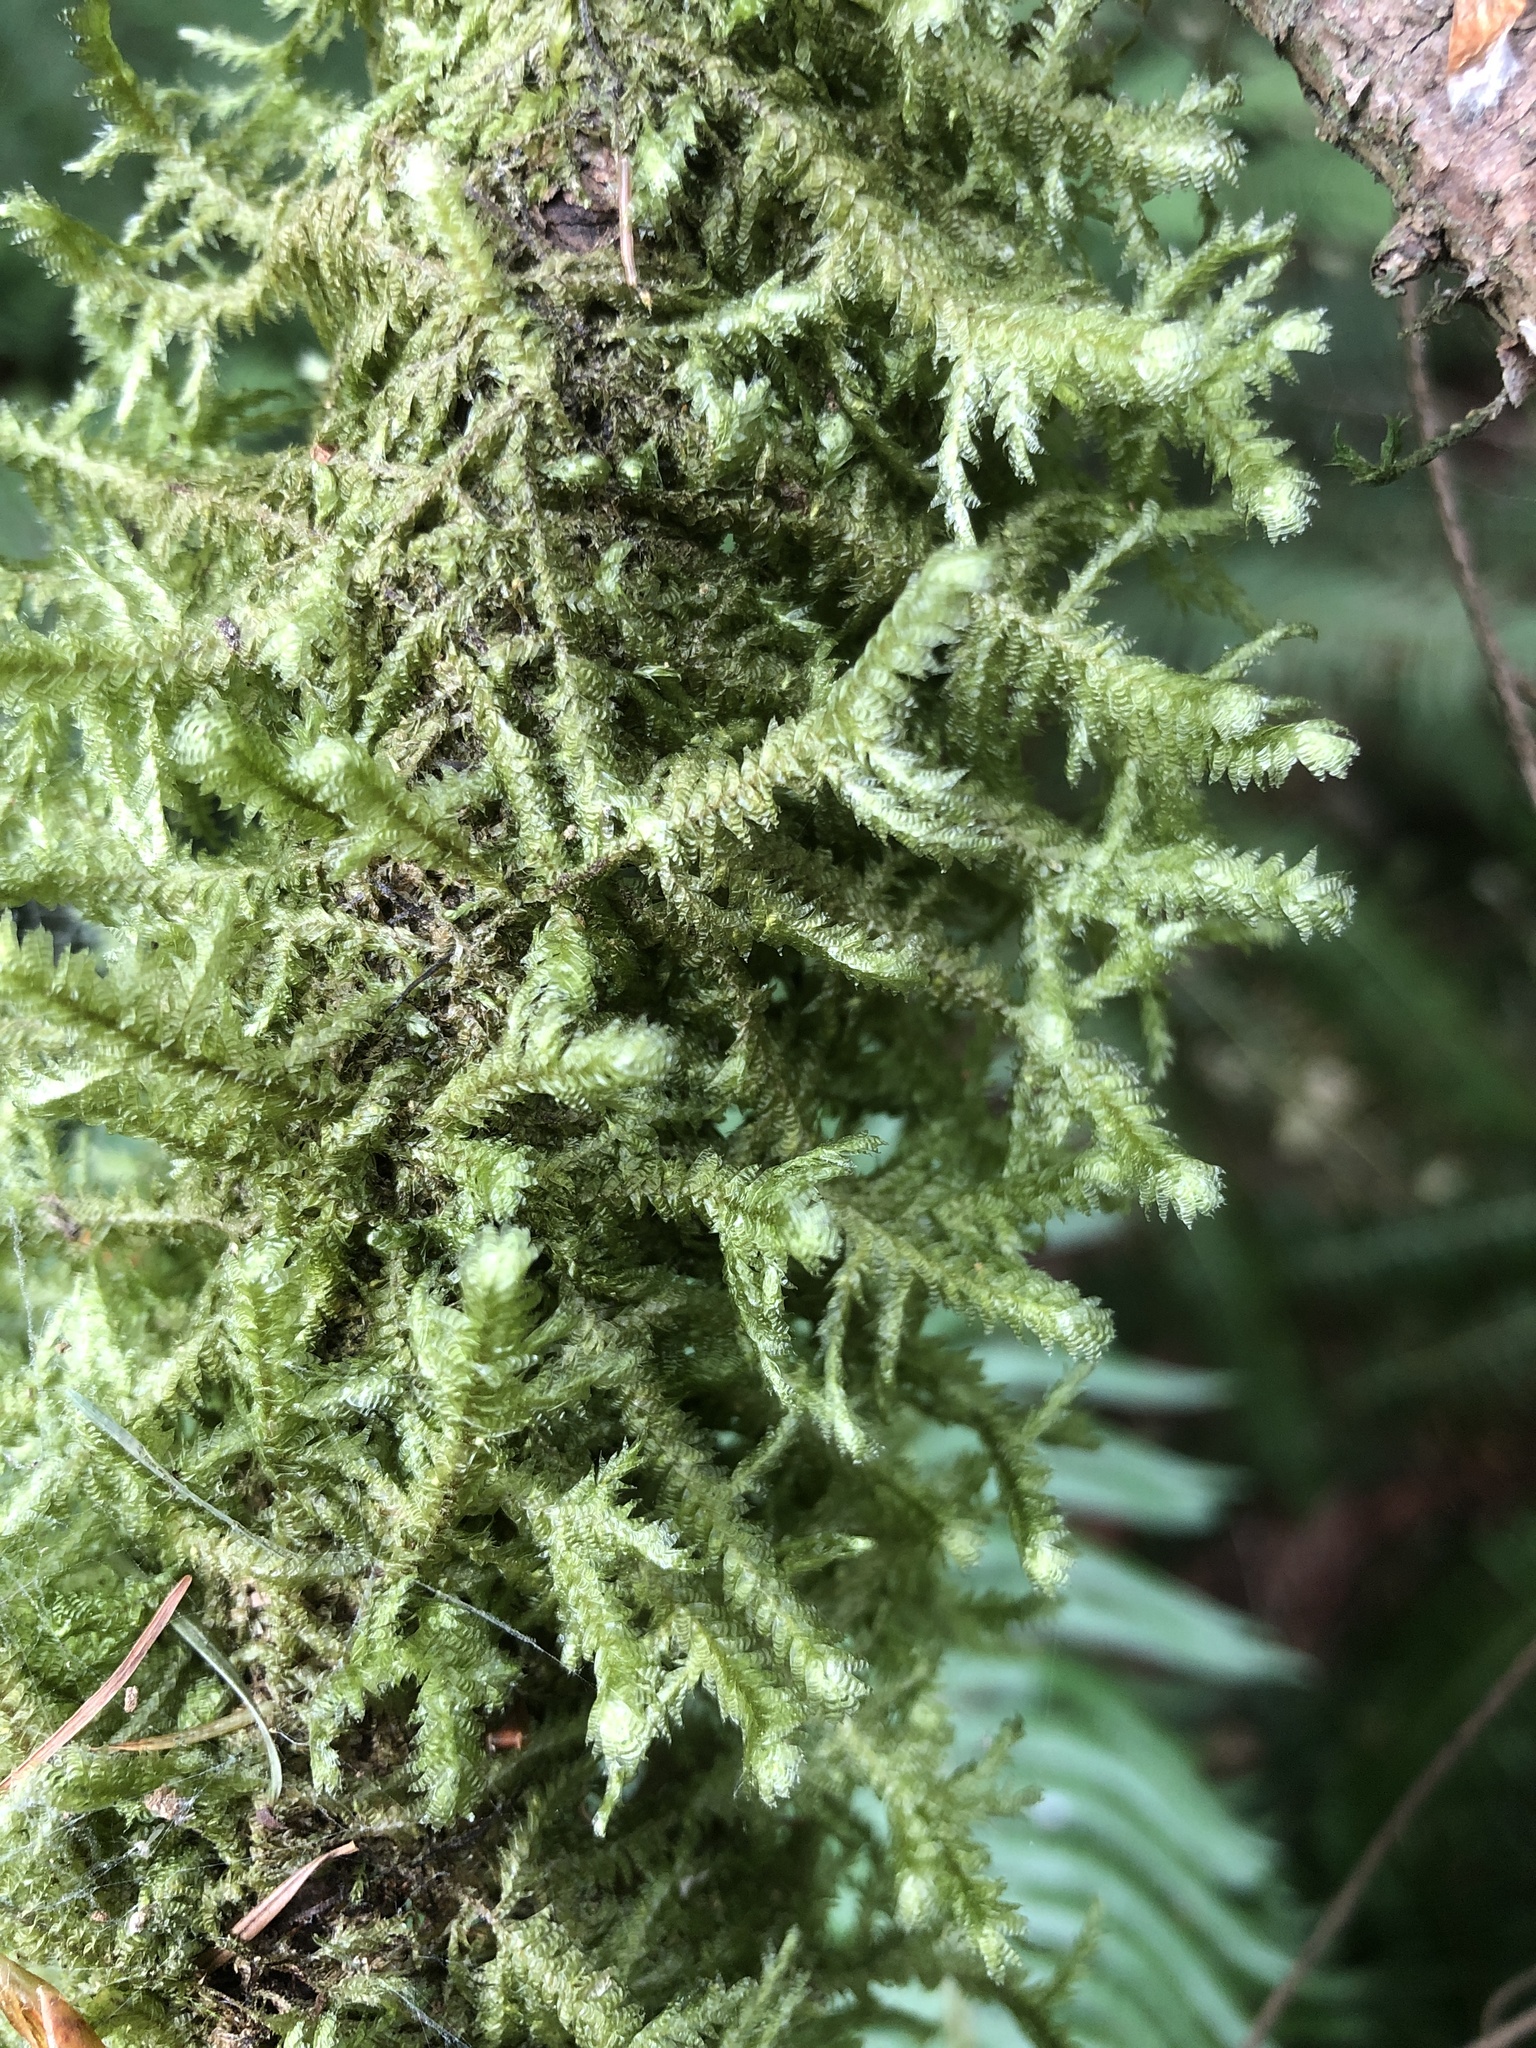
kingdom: Plantae
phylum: Bryophyta
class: Bryopsida
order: Hypnales
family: Neckeraceae
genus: Neckera
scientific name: Neckera douglasii
